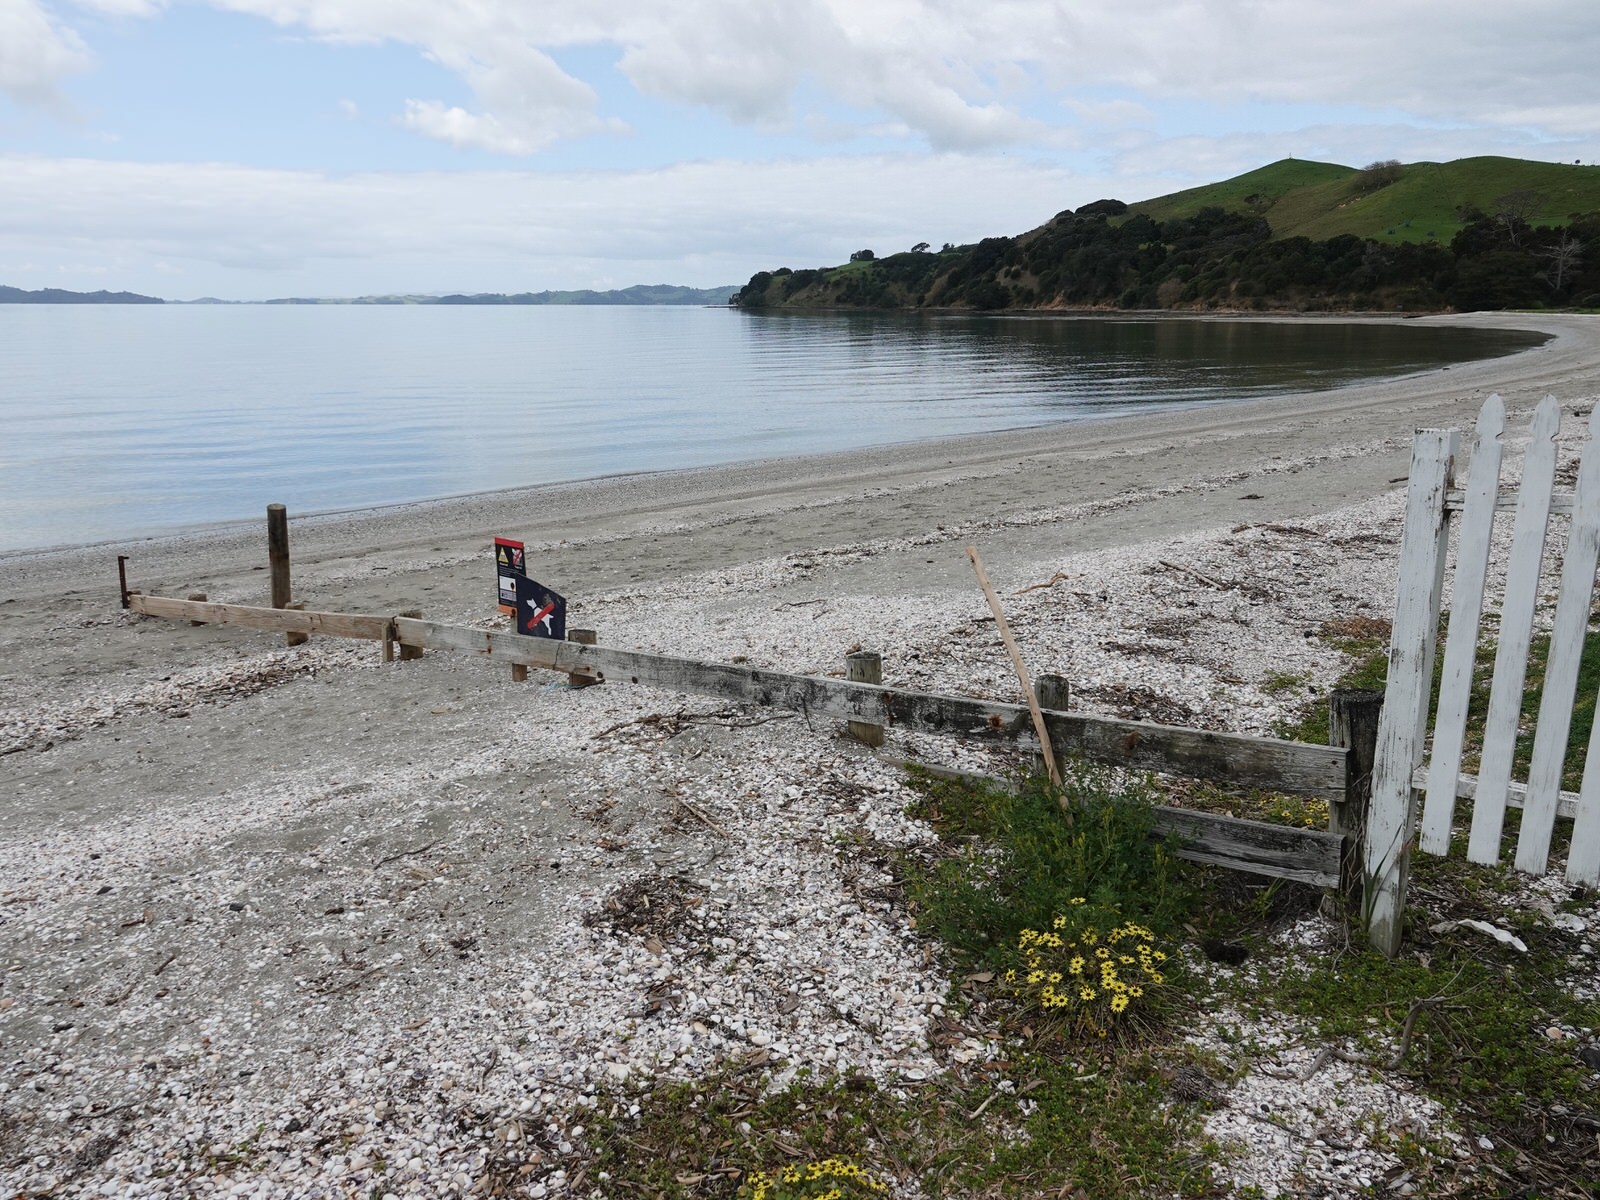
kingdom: Plantae
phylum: Tracheophyta
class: Magnoliopsida
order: Asterales
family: Asteraceae
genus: Arctotheca
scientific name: Arctotheca calendula
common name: Capeweed
